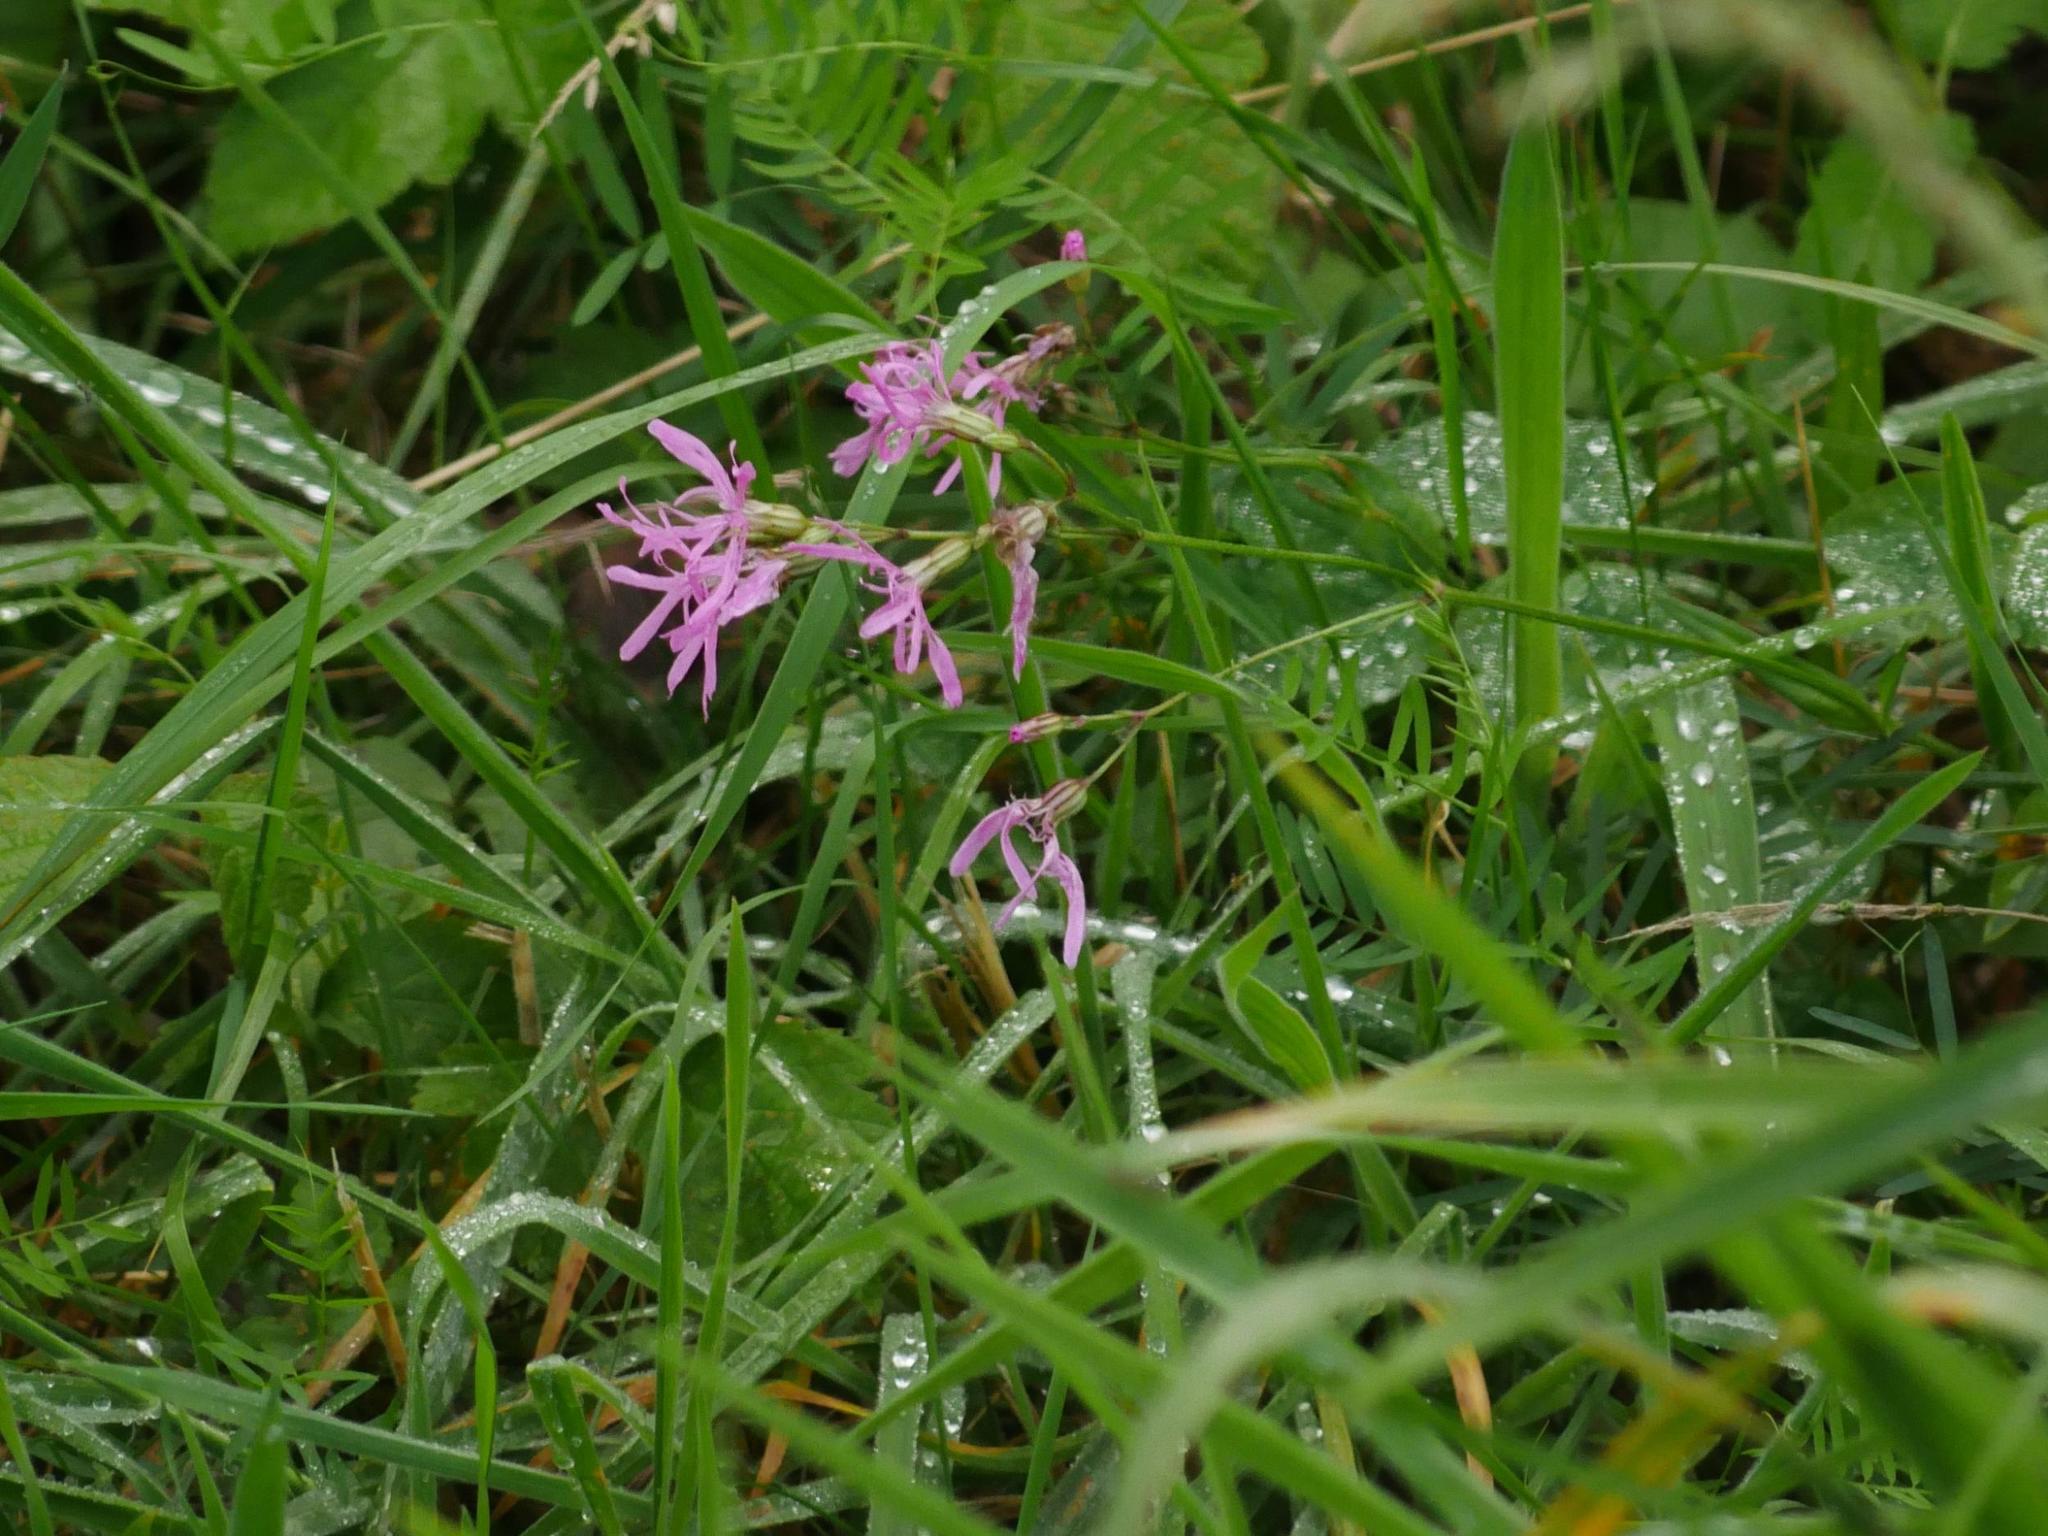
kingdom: Plantae
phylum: Tracheophyta
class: Magnoliopsida
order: Caryophyllales
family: Caryophyllaceae
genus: Silene
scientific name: Silene flos-cuculi
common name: Ragged-robin
